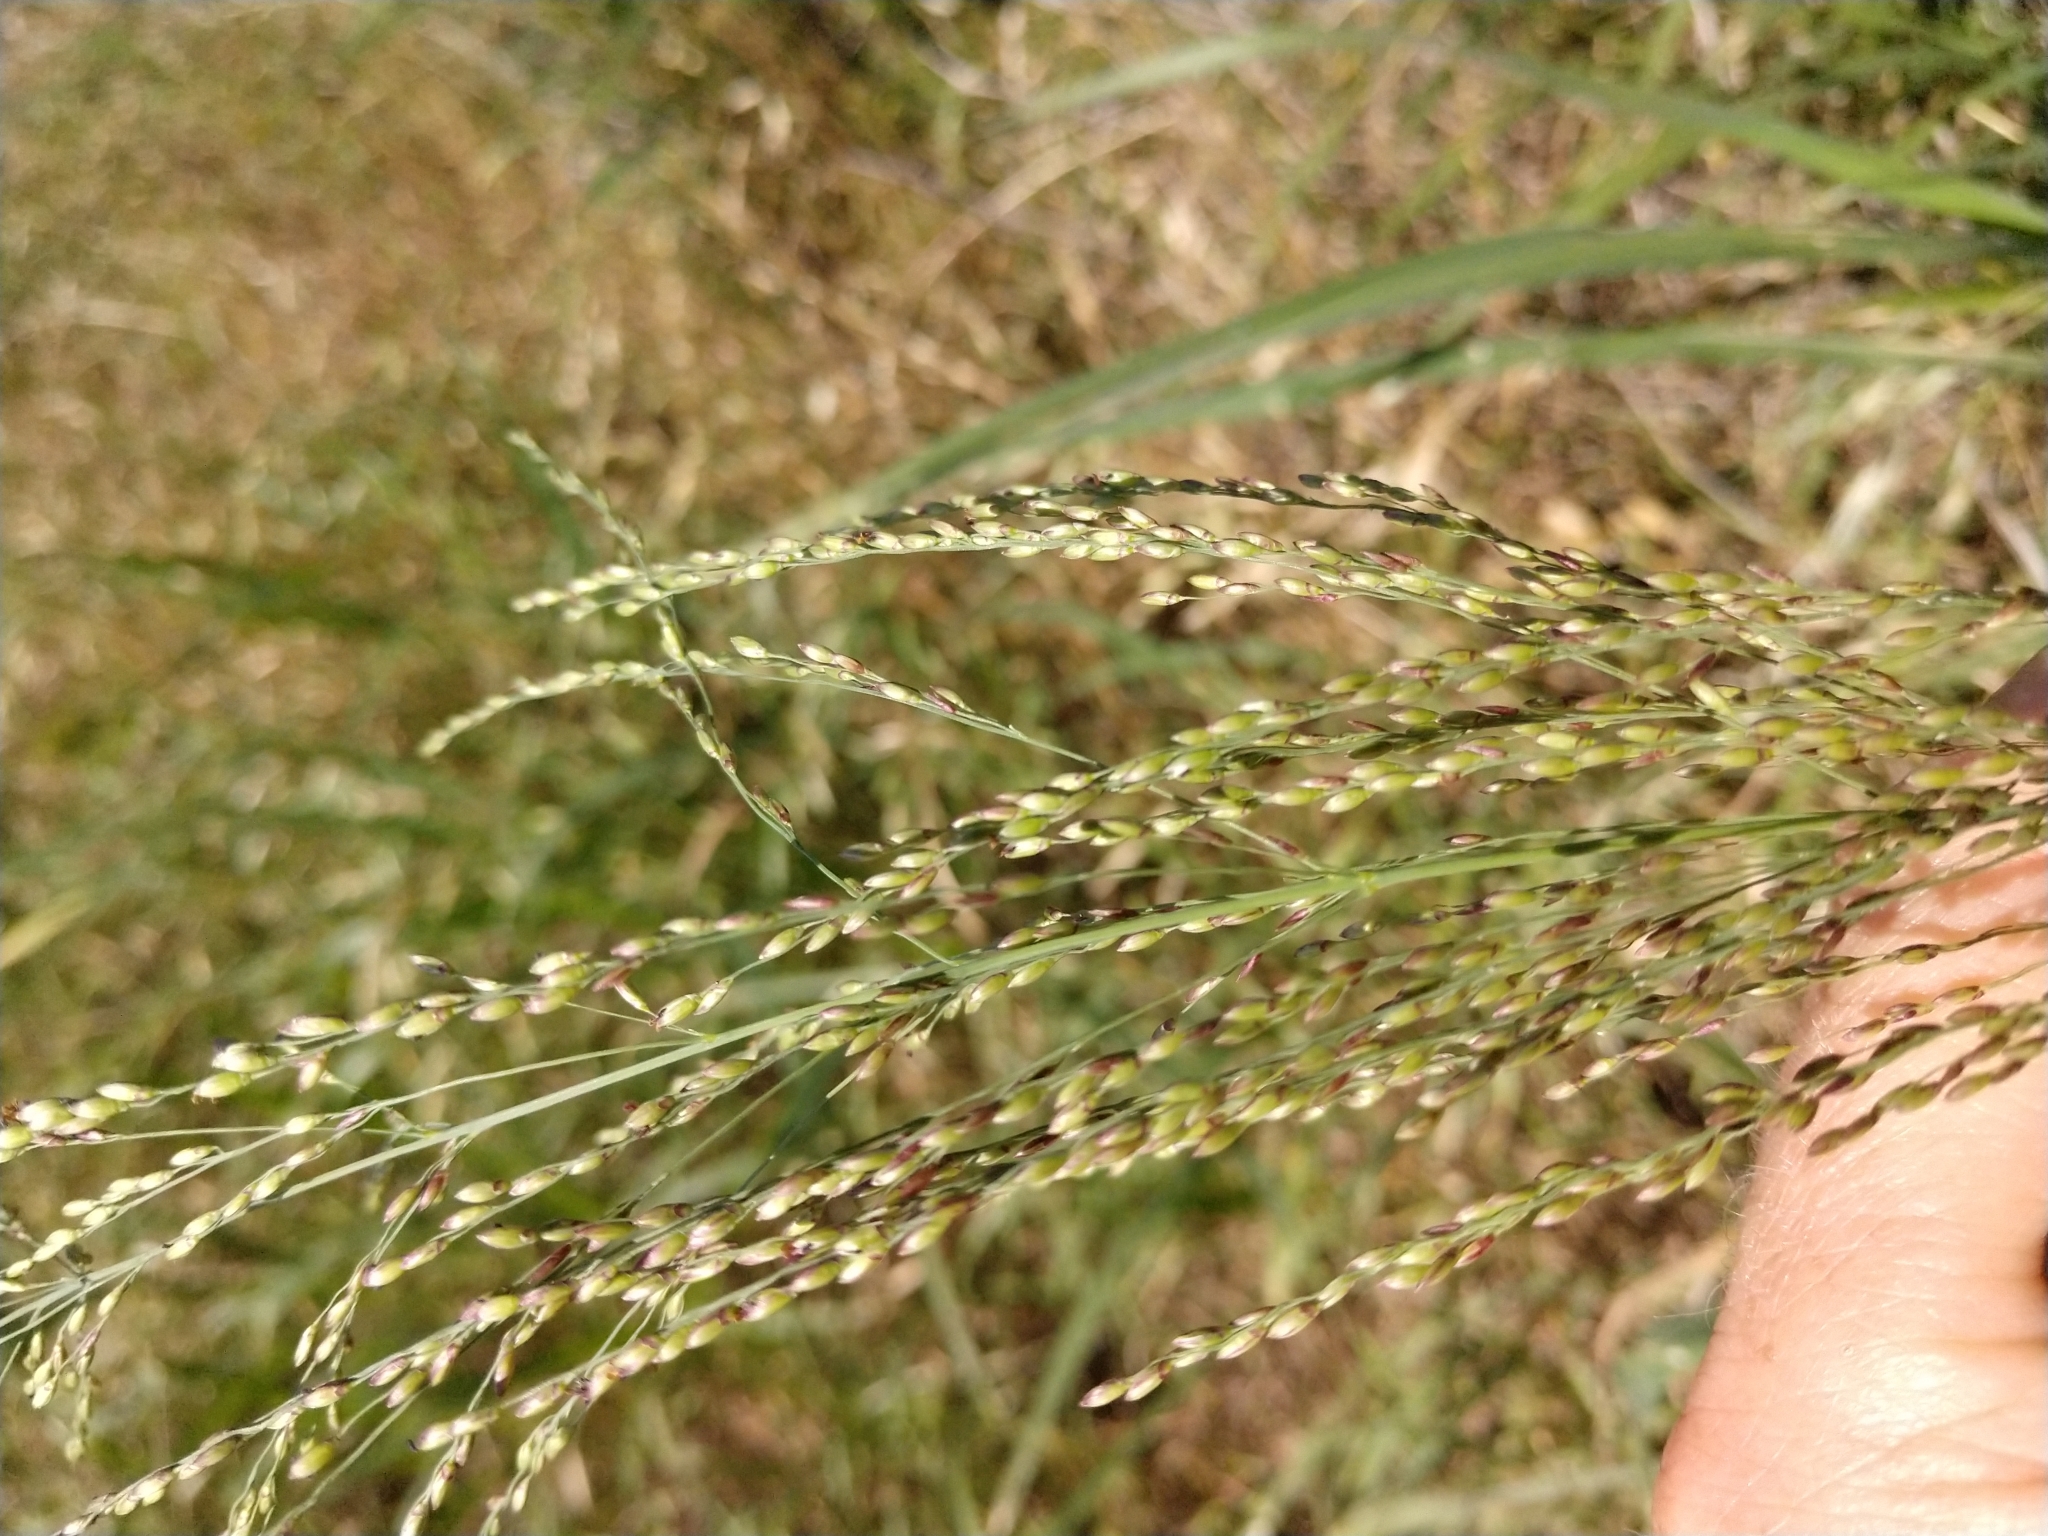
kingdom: Plantae
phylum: Tracheophyta
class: Liliopsida
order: Poales
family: Poaceae
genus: Megathyrsus
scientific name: Megathyrsus maximus
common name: Guineagrass
